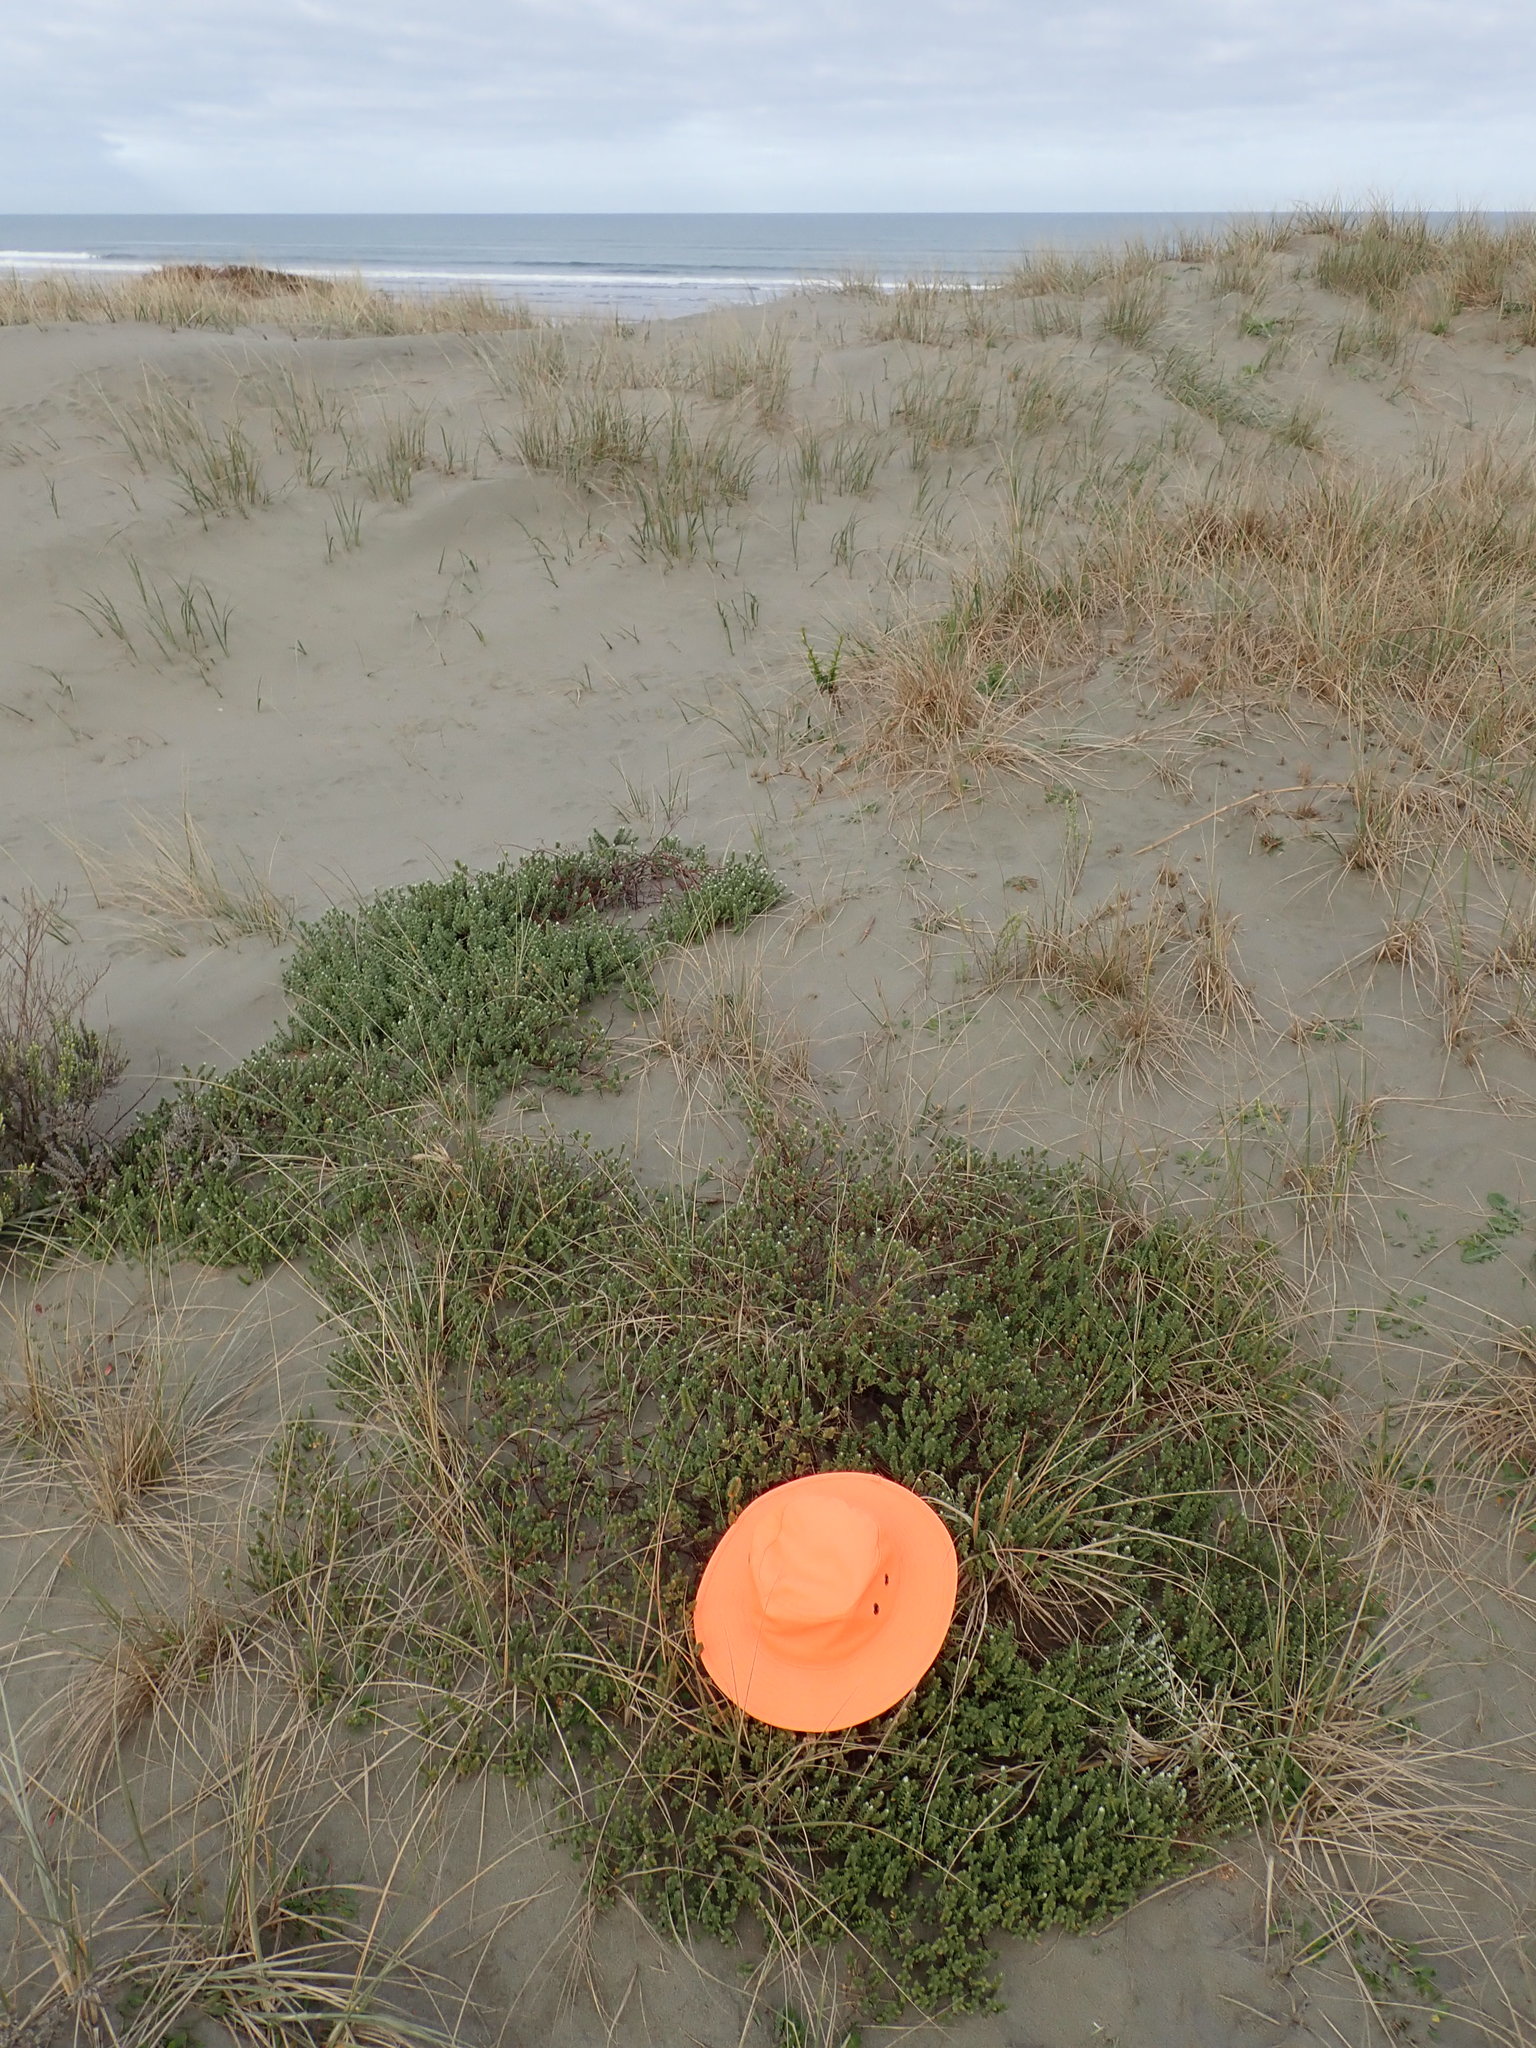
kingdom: Plantae
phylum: Tracheophyta
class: Magnoliopsida
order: Malvales
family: Thymelaeaceae
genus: Pimelea
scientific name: Pimelea villosa
